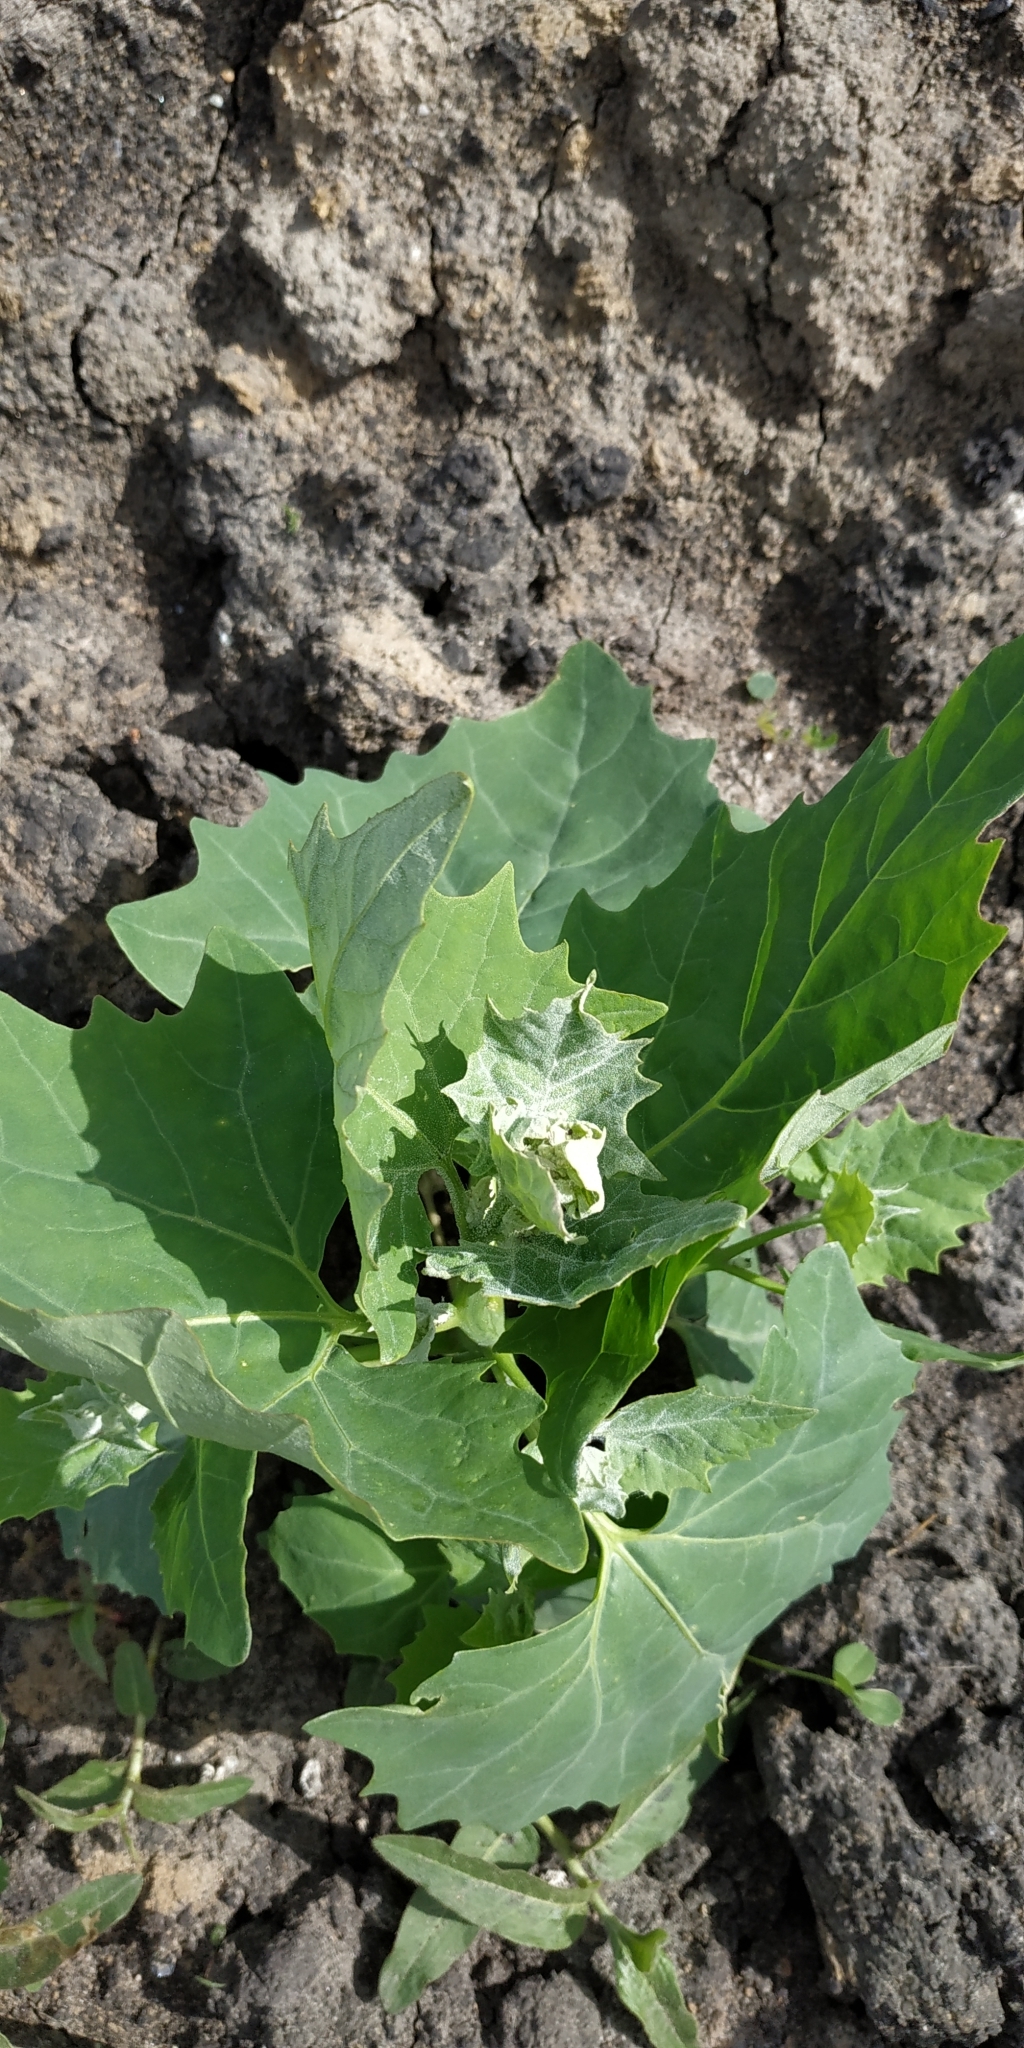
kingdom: Plantae
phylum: Tracheophyta
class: Magnoliopsida
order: Caryophyllales
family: Amaranthaceae
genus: Atriplex
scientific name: Atriplex sagittata
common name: Purple orache
